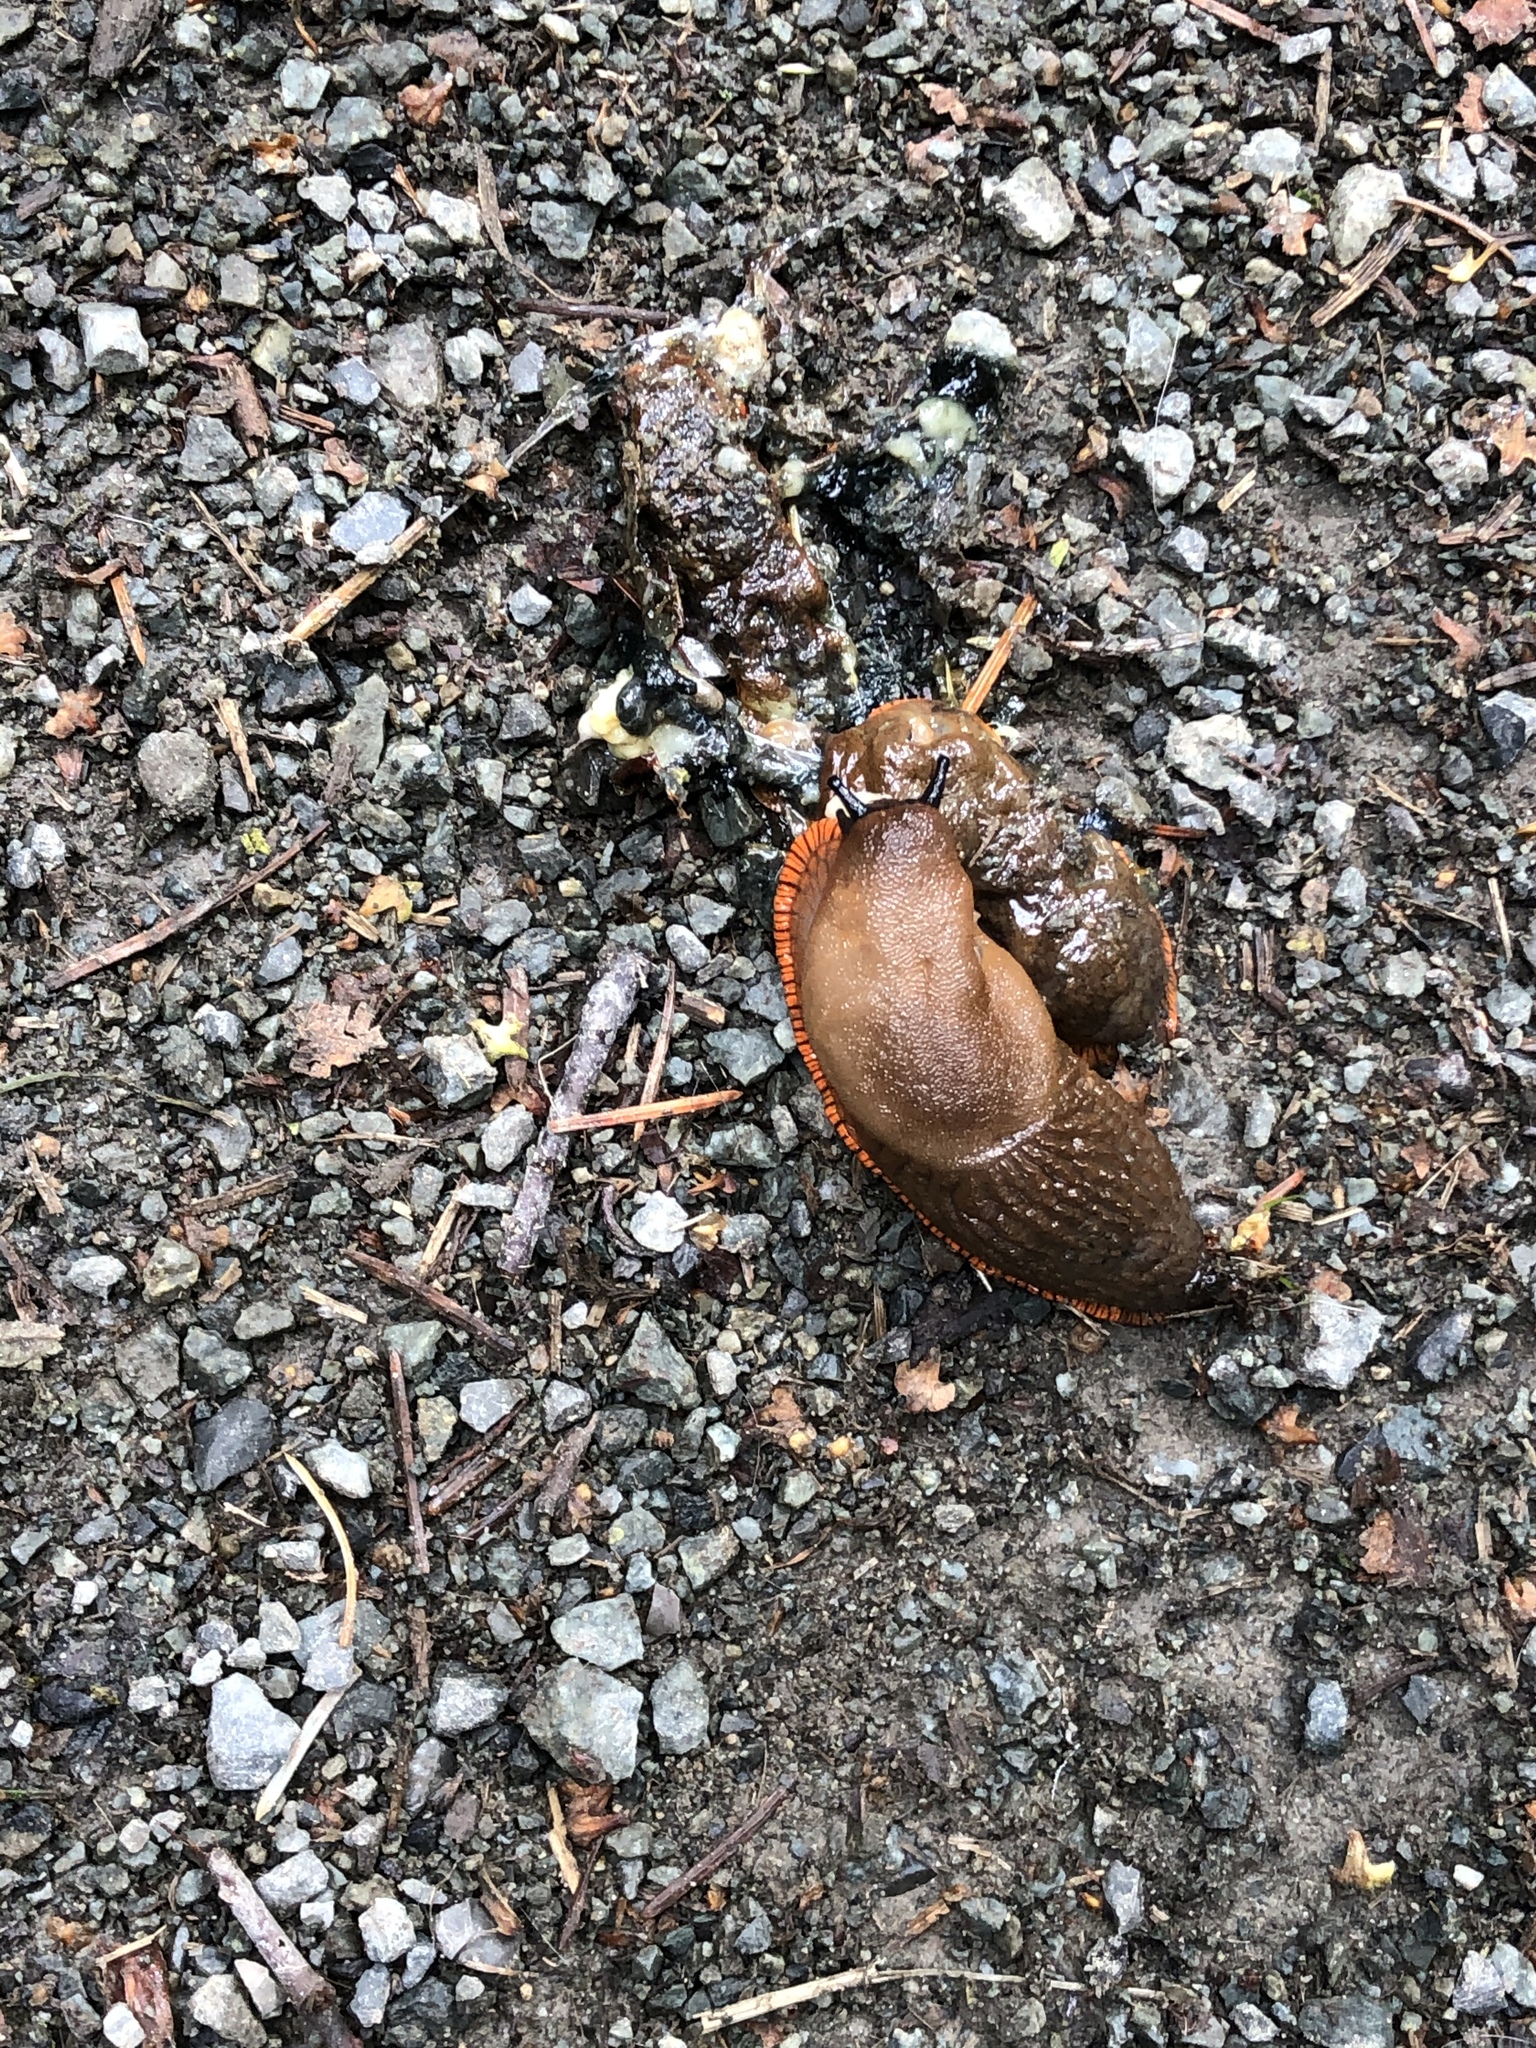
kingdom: Animalia
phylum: Mollusca
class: Gastropoda
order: Stylommatophora
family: Arionidae
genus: Arion
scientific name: Arion rufus
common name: Chocolate arion
